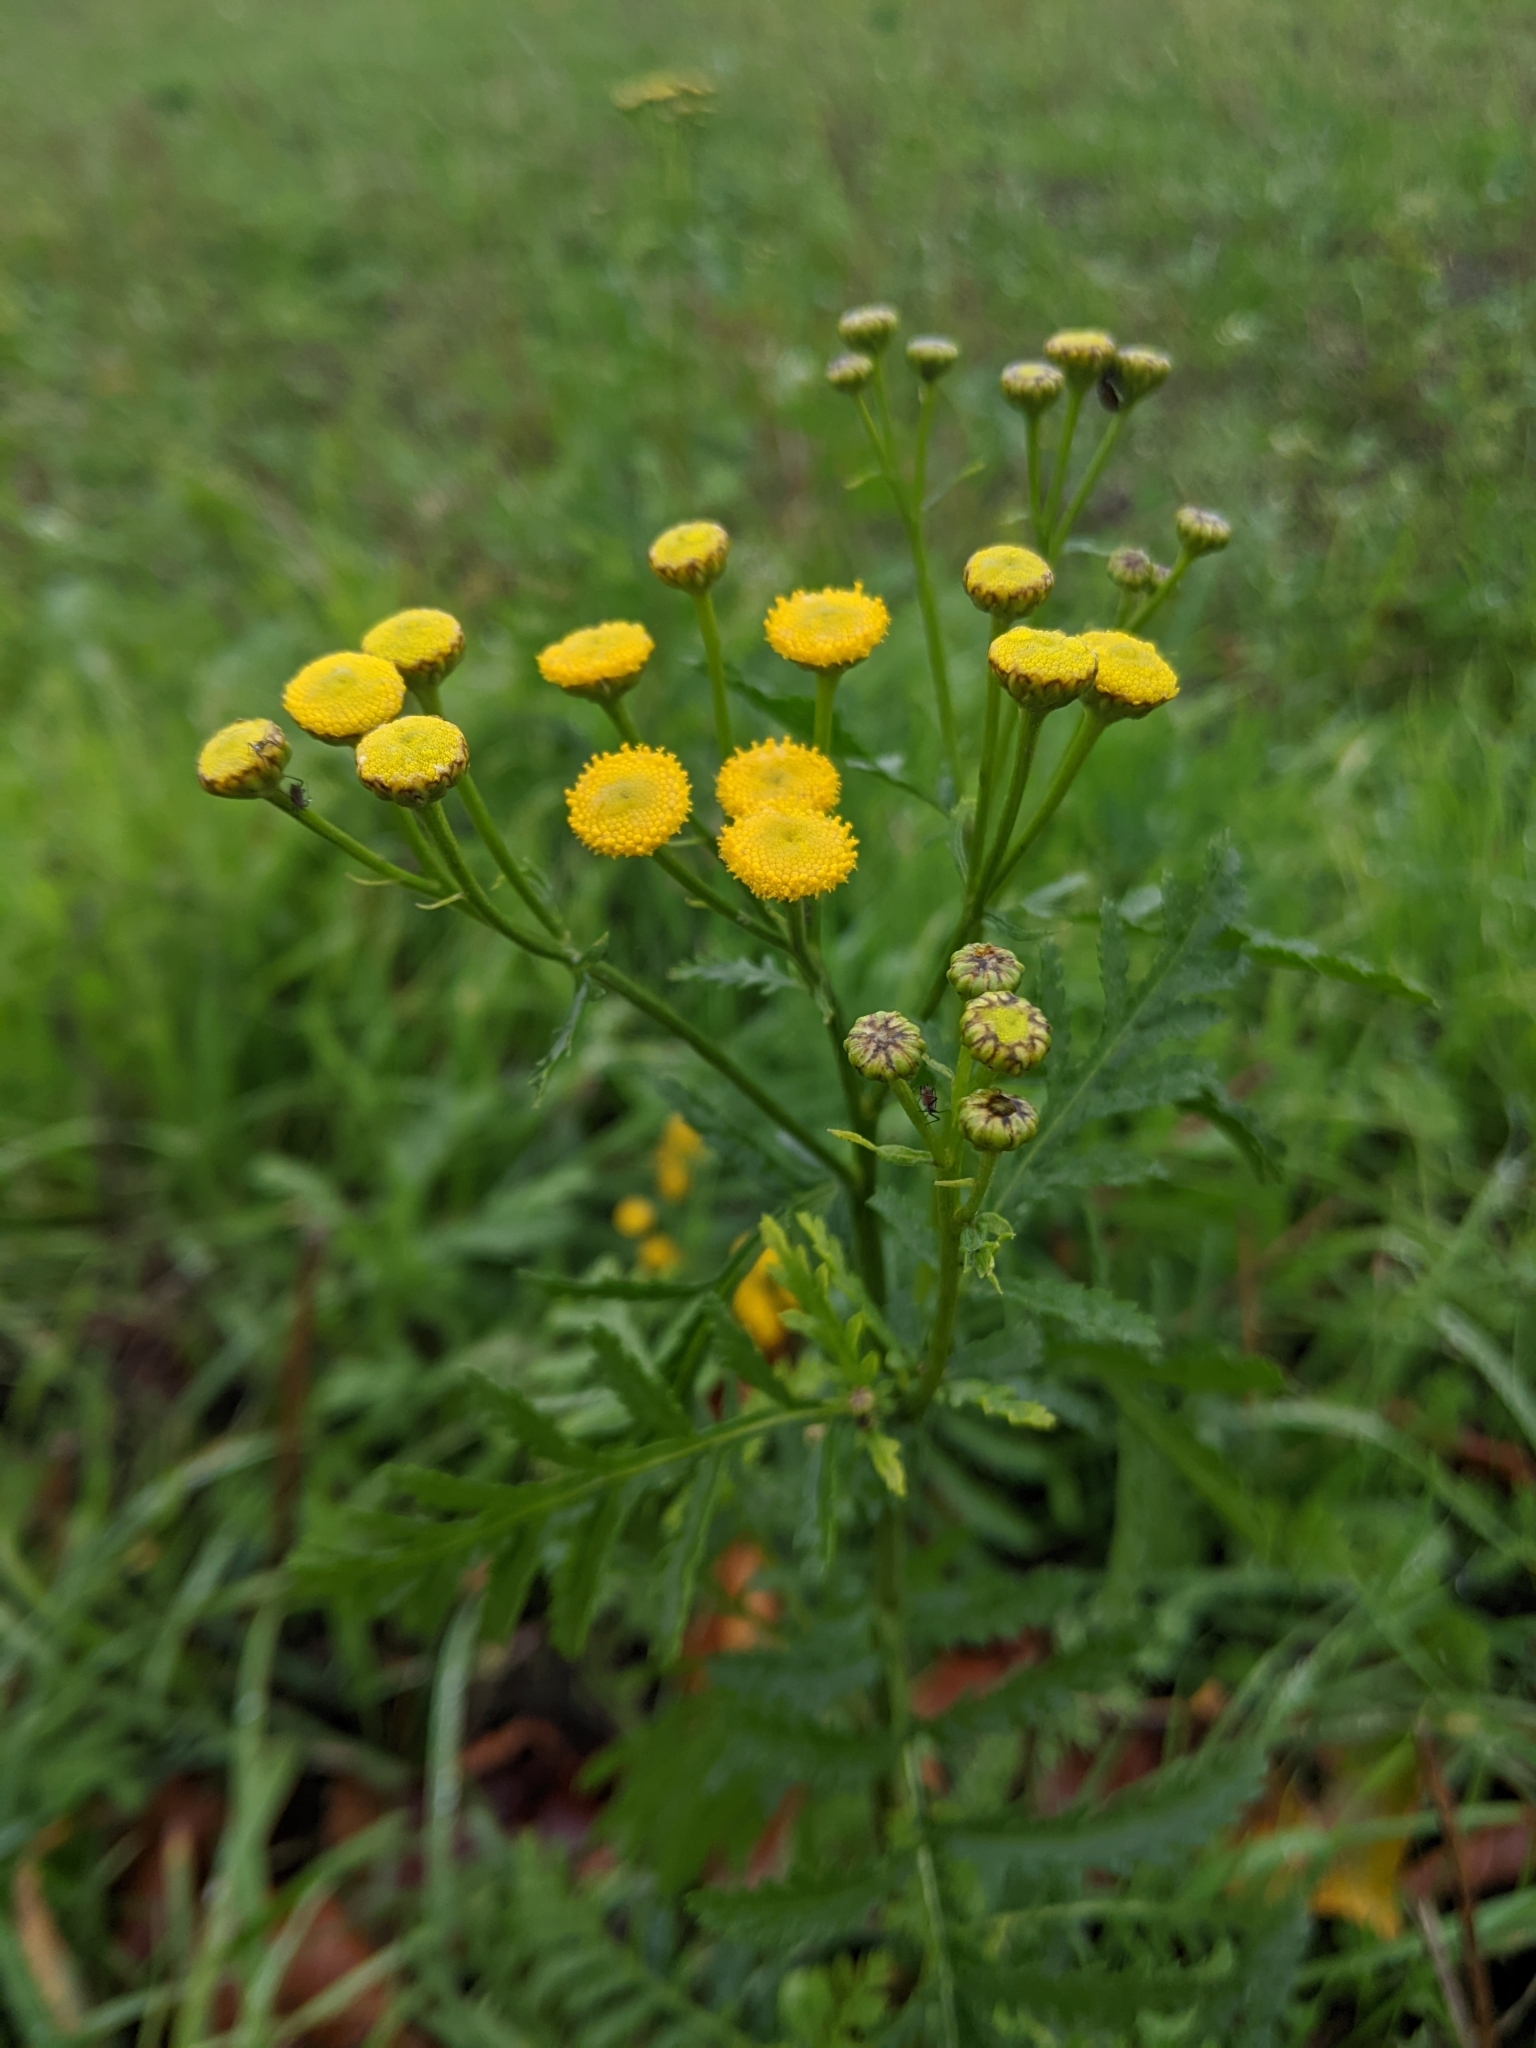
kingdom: Plantae
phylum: Tracheophyta
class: Magnoliopsida
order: Asterales
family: Asteraceae
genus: Tanacetum
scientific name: Tanacetum vulgare
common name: Common tansy
